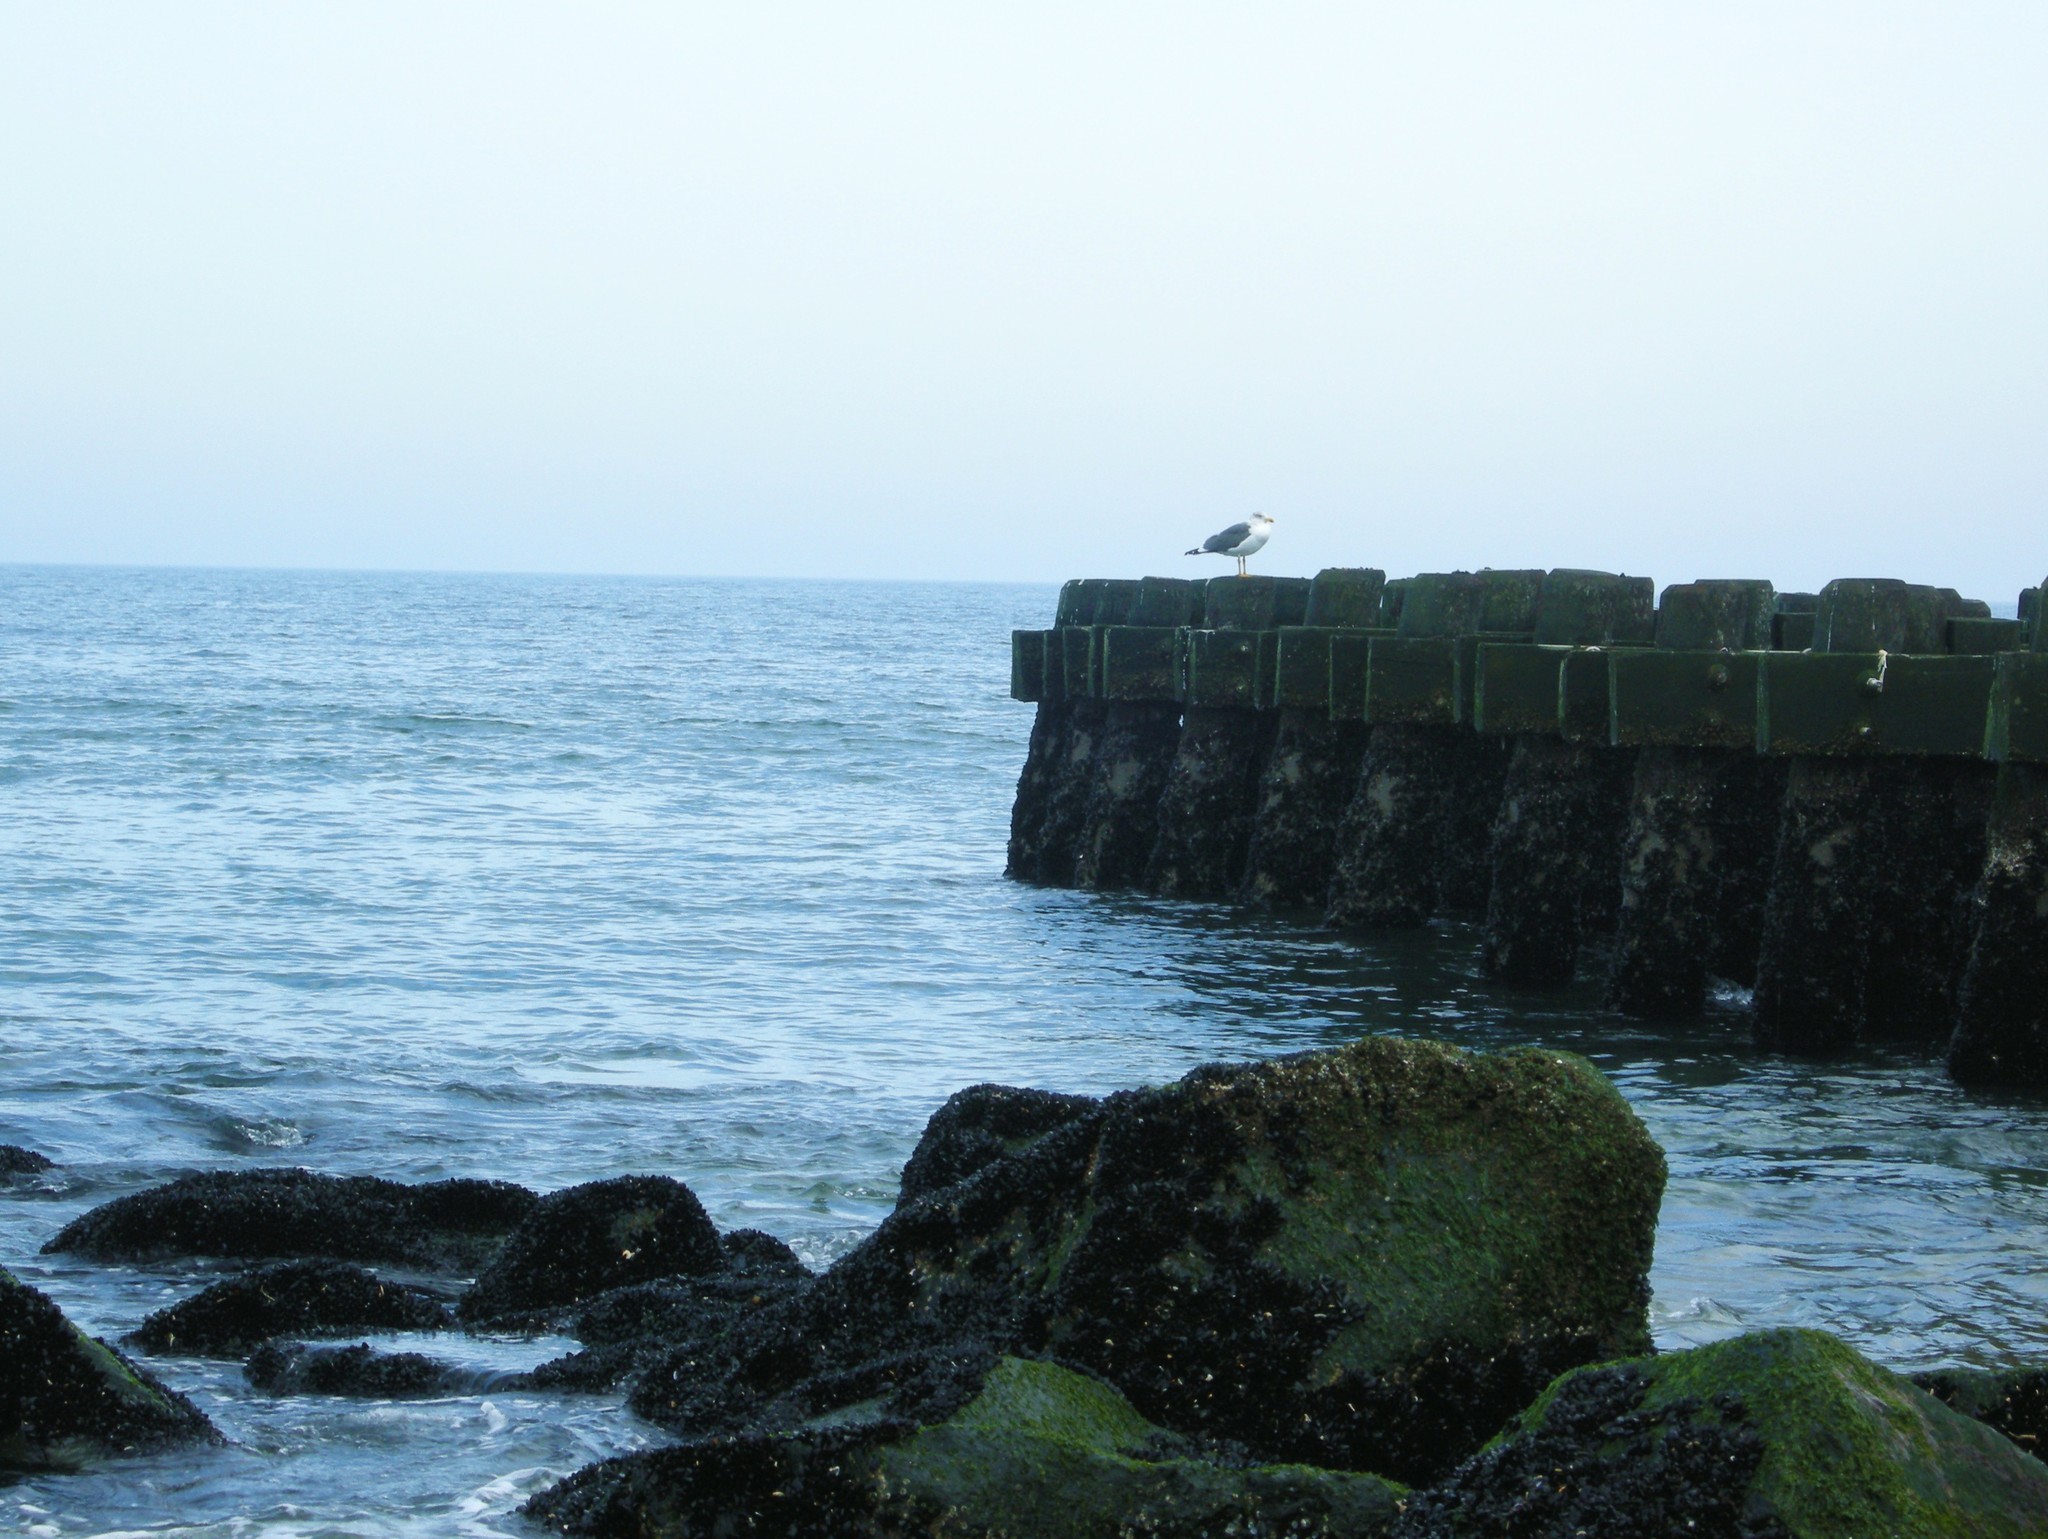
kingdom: Animalia
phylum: Chordata
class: Aves
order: Charadriiformes
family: Laridae
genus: Larus
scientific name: Larus fuscus
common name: Lesser black-backed gull
